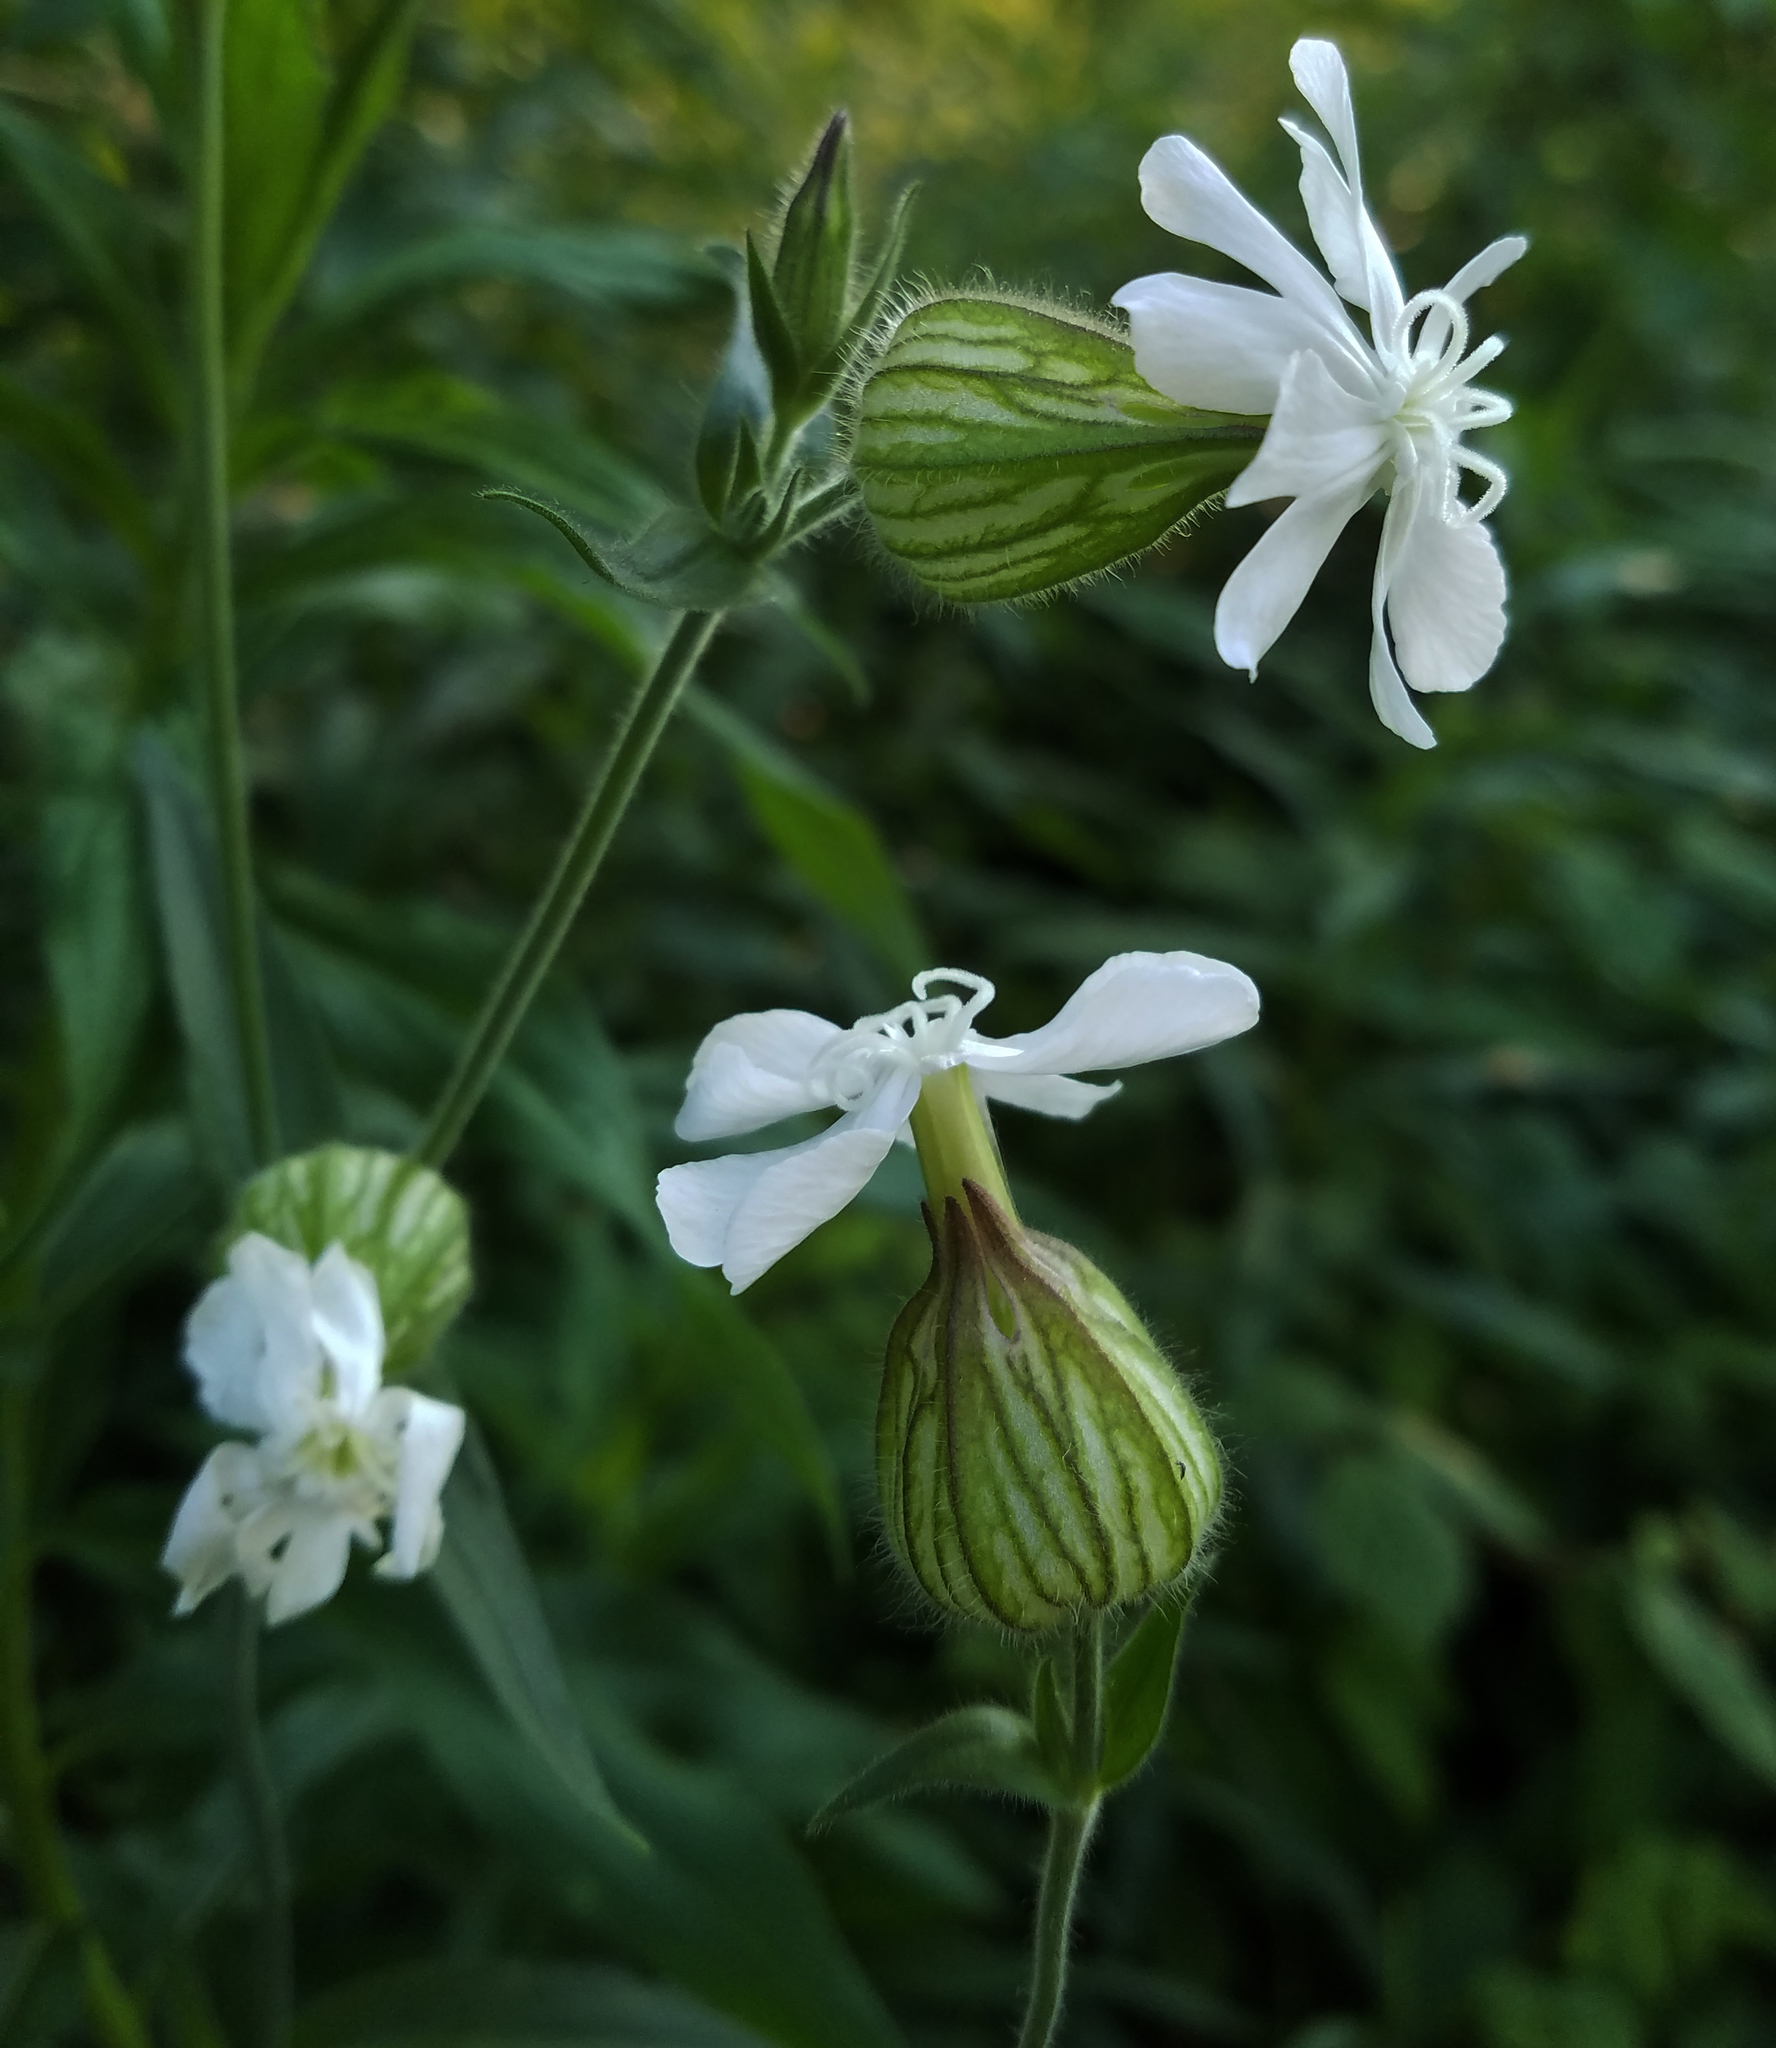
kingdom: Plantae
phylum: Tracheophyta
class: Magnoliopsida
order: Caryophyllales
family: Caryophyllaceae
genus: Silene
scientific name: Silene latifolia
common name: White campion
